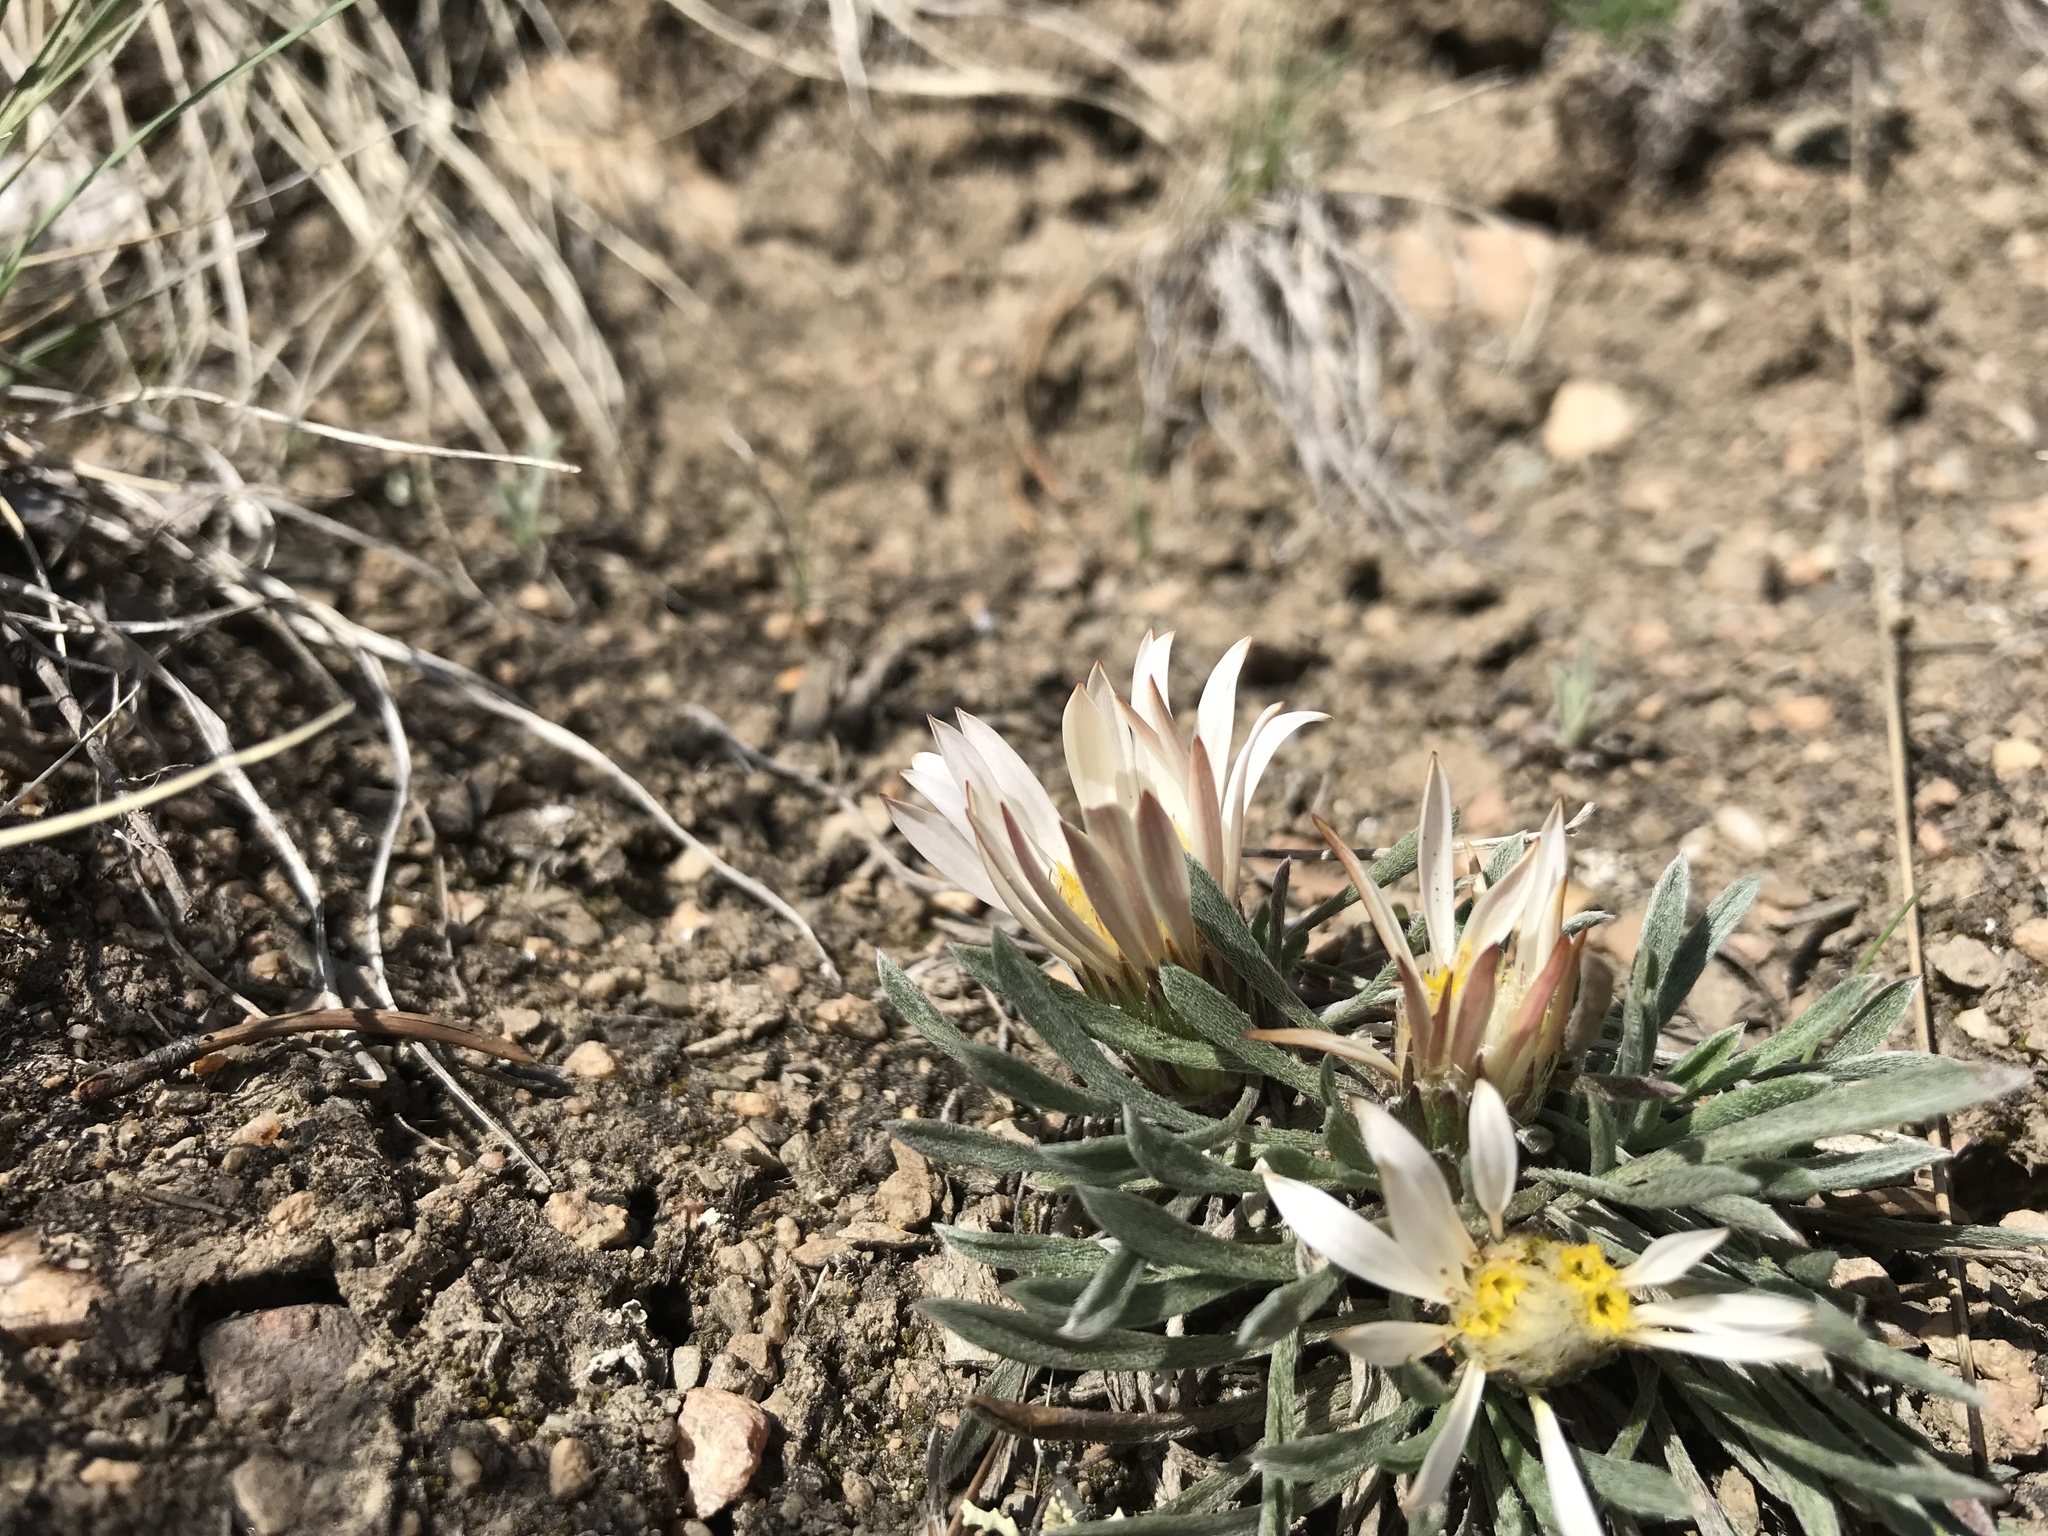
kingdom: Plantae
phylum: Tracheophyta
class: Magnoliopsida
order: Asterales
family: Asteraceae
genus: Townsendia
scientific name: Townsendia hookeri
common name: Hooker's townsend daisy
